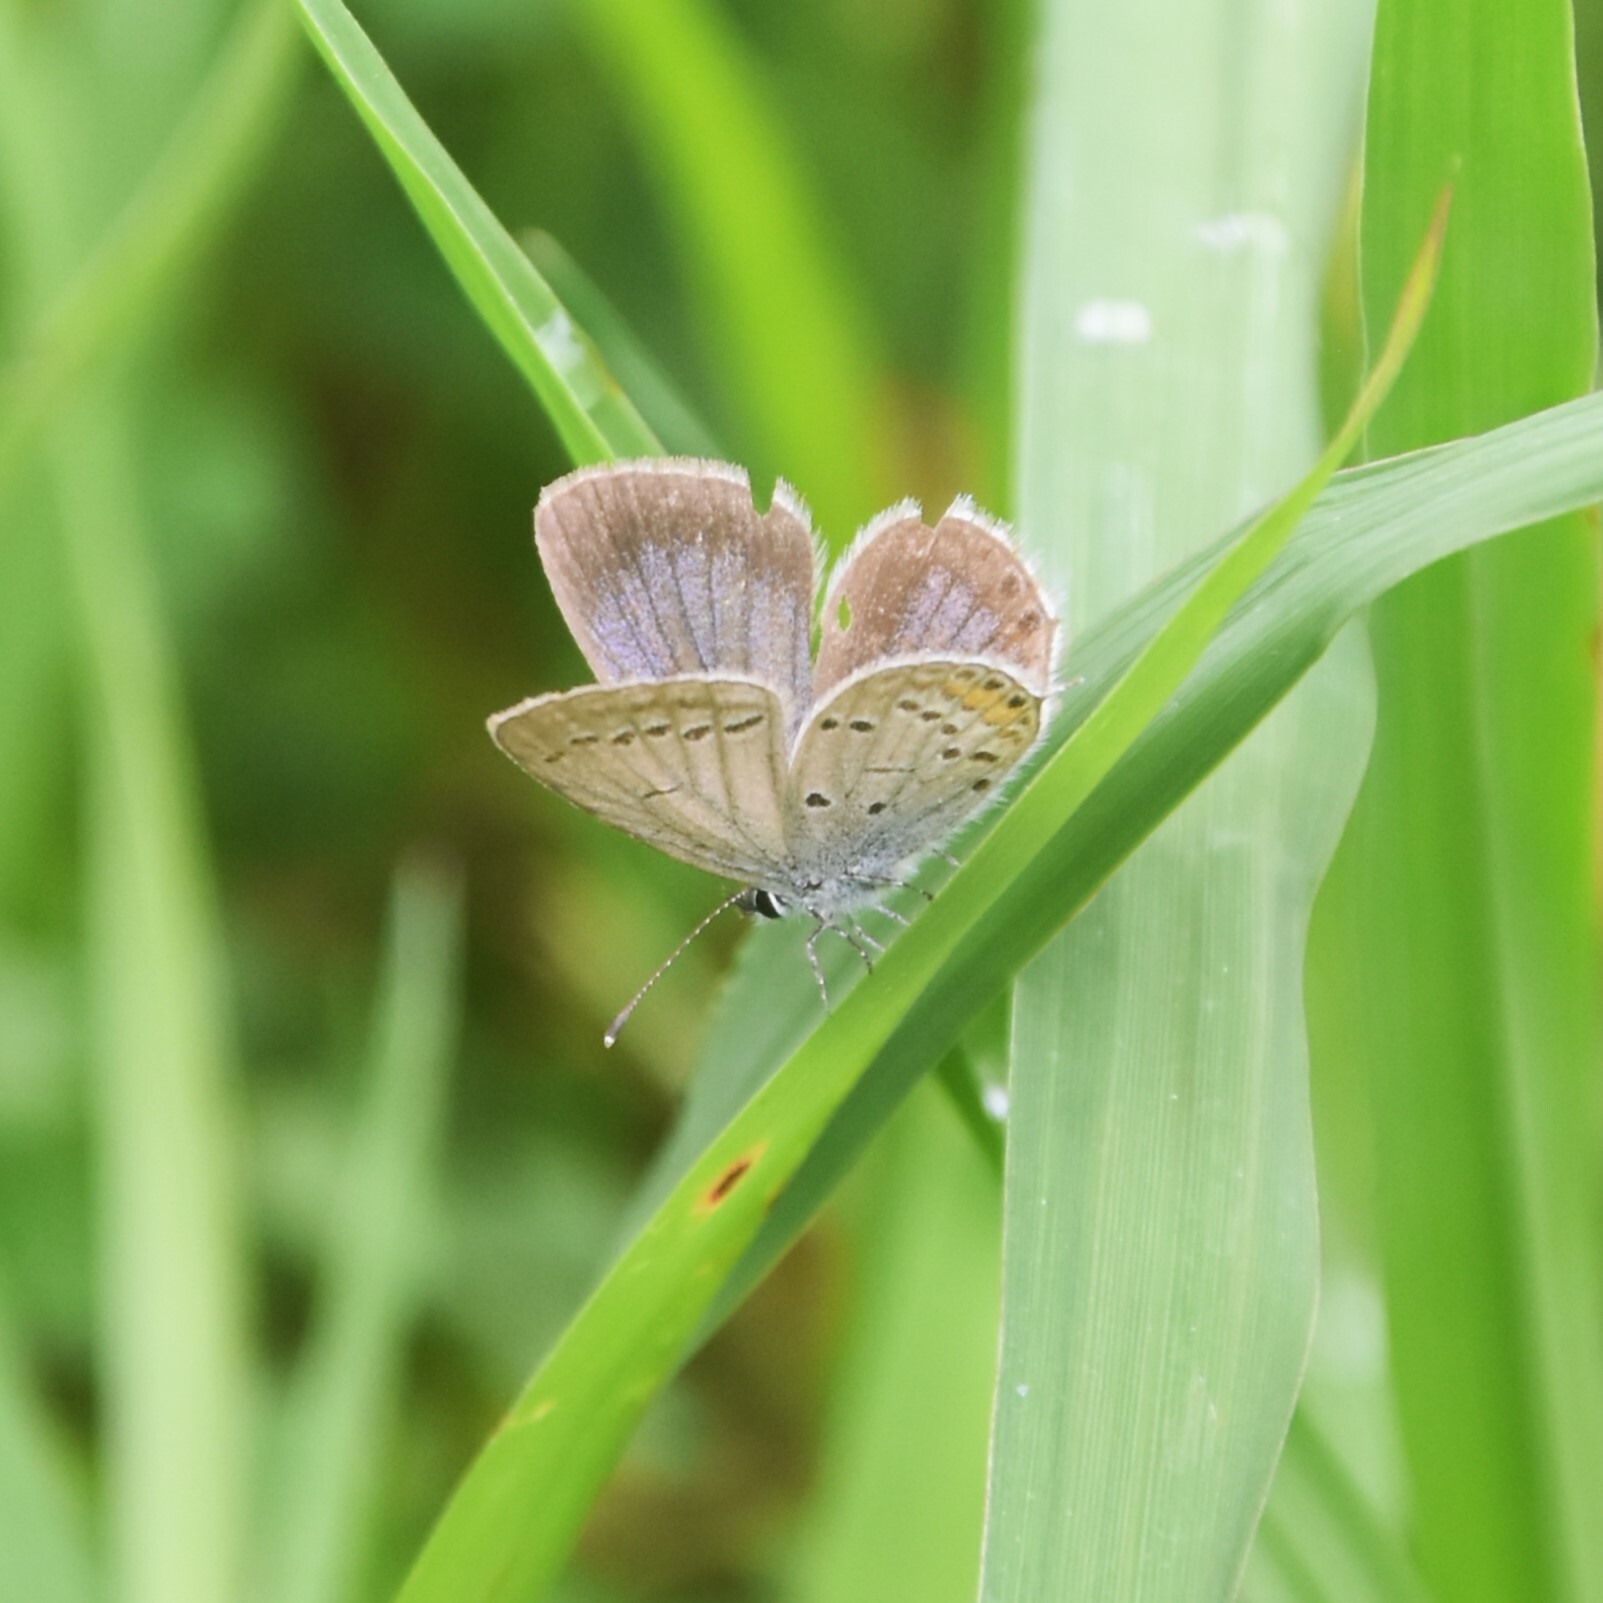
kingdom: Animalia
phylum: Arthropoda
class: Insecta
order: Lepidoptera
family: Lycaenidae
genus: Elkalyce
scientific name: Elkalyce argiades
